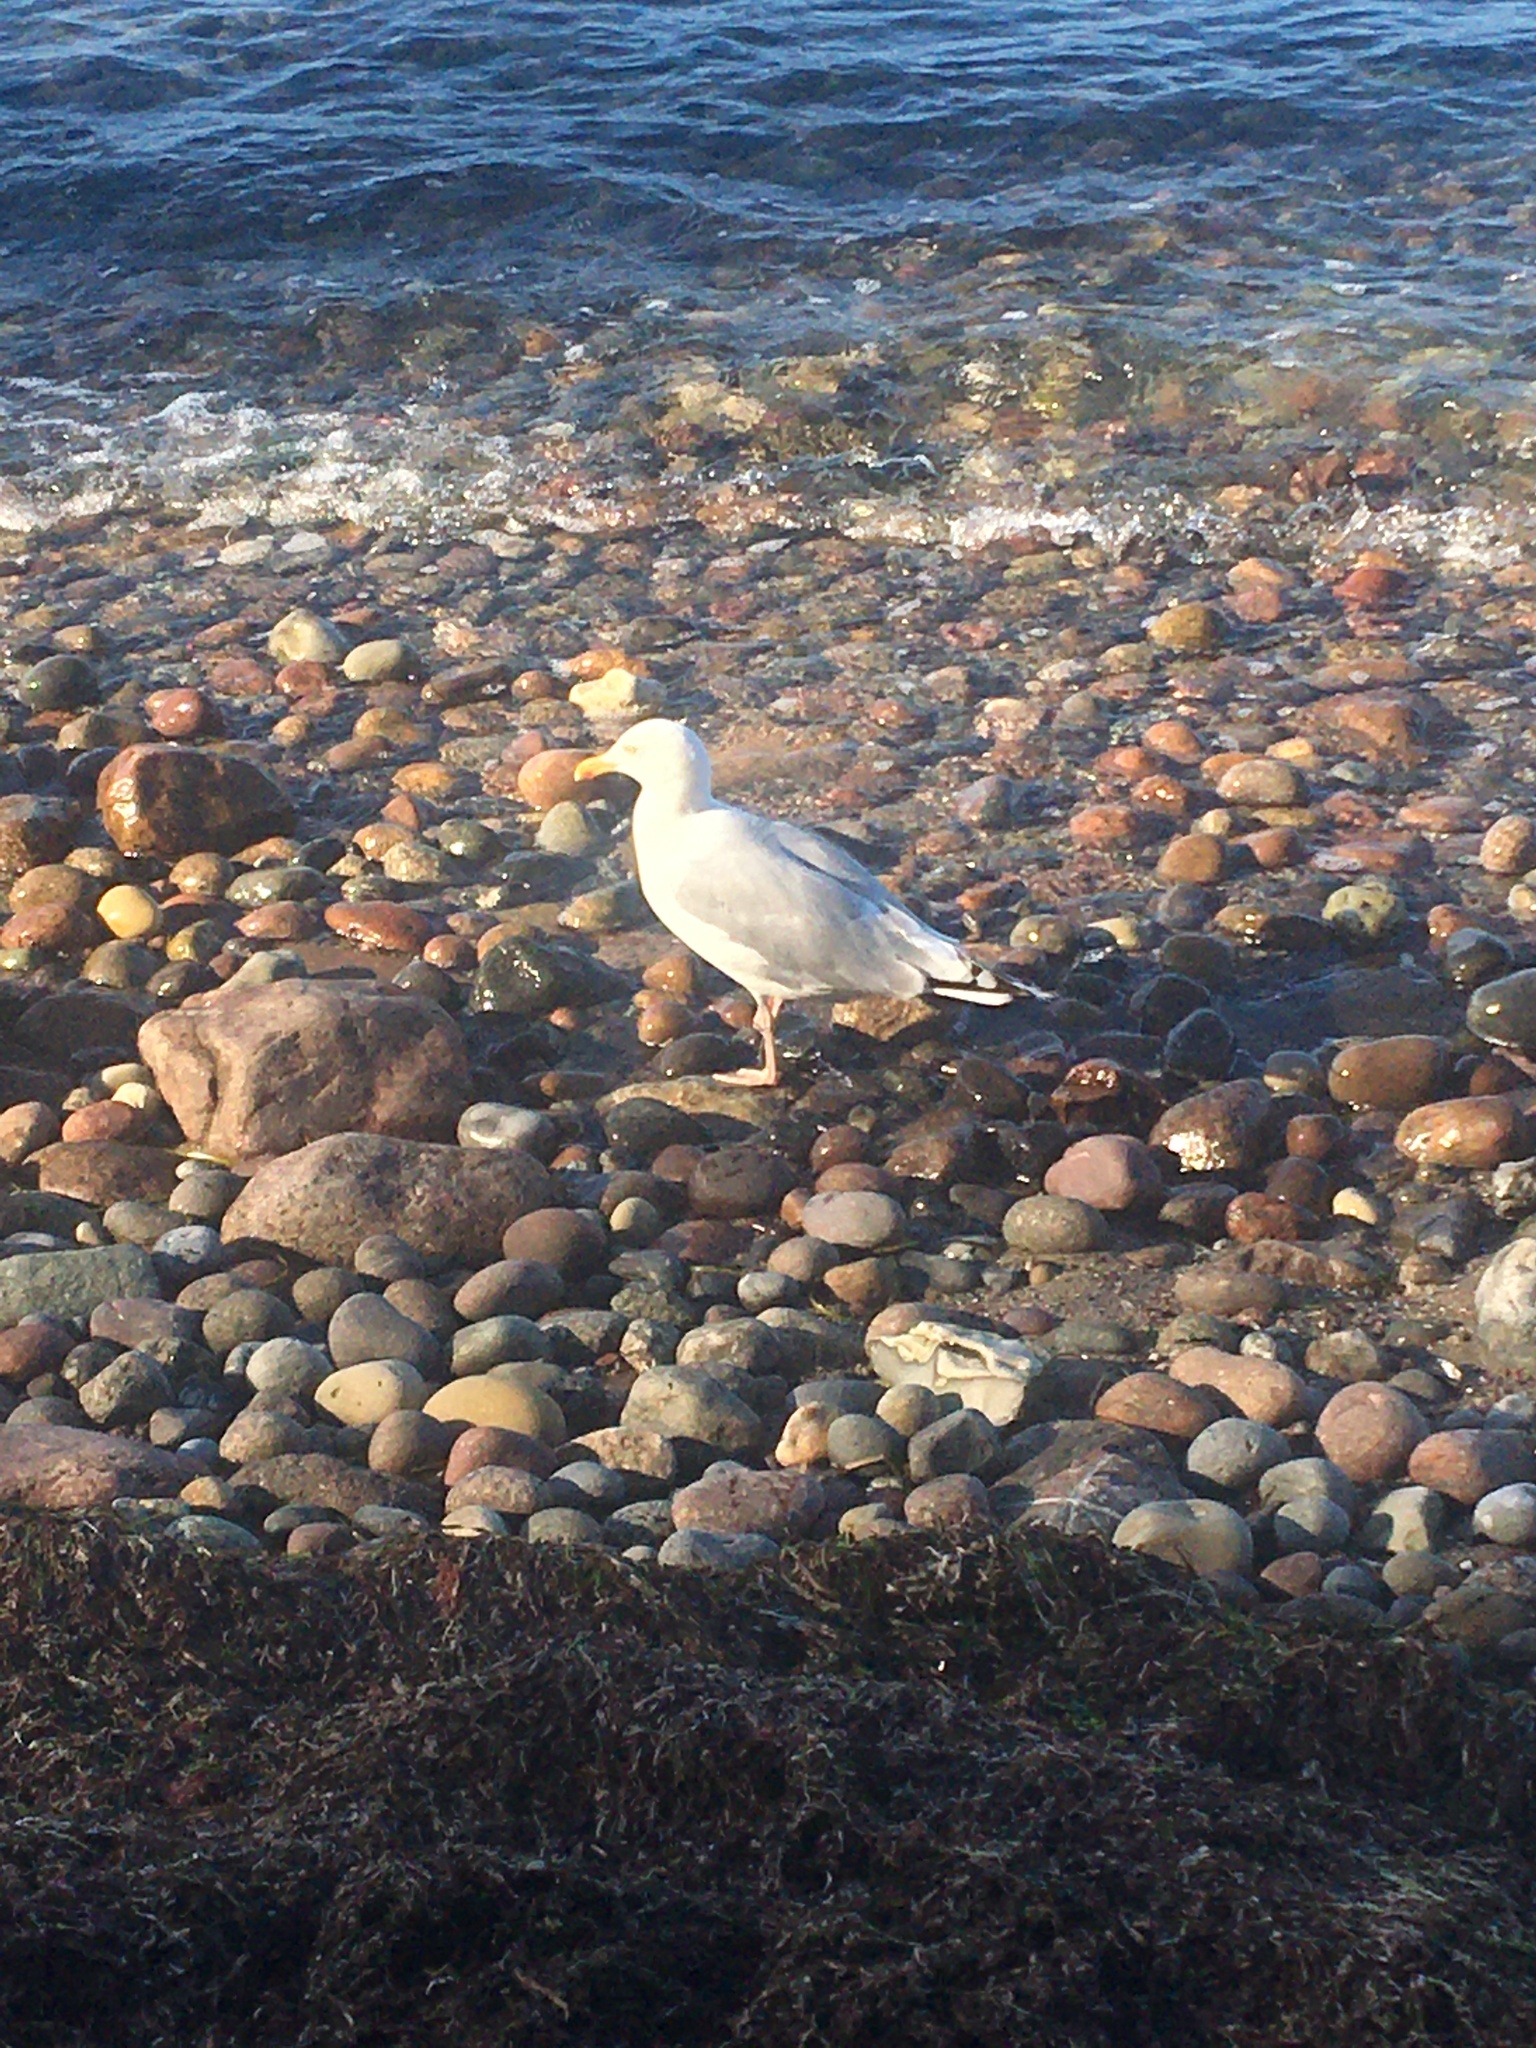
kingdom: Animalia
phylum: Chordata
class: Aves
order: Charadriiformes
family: Laridae
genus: Larus
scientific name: Larus argentatus
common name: Herring gull
